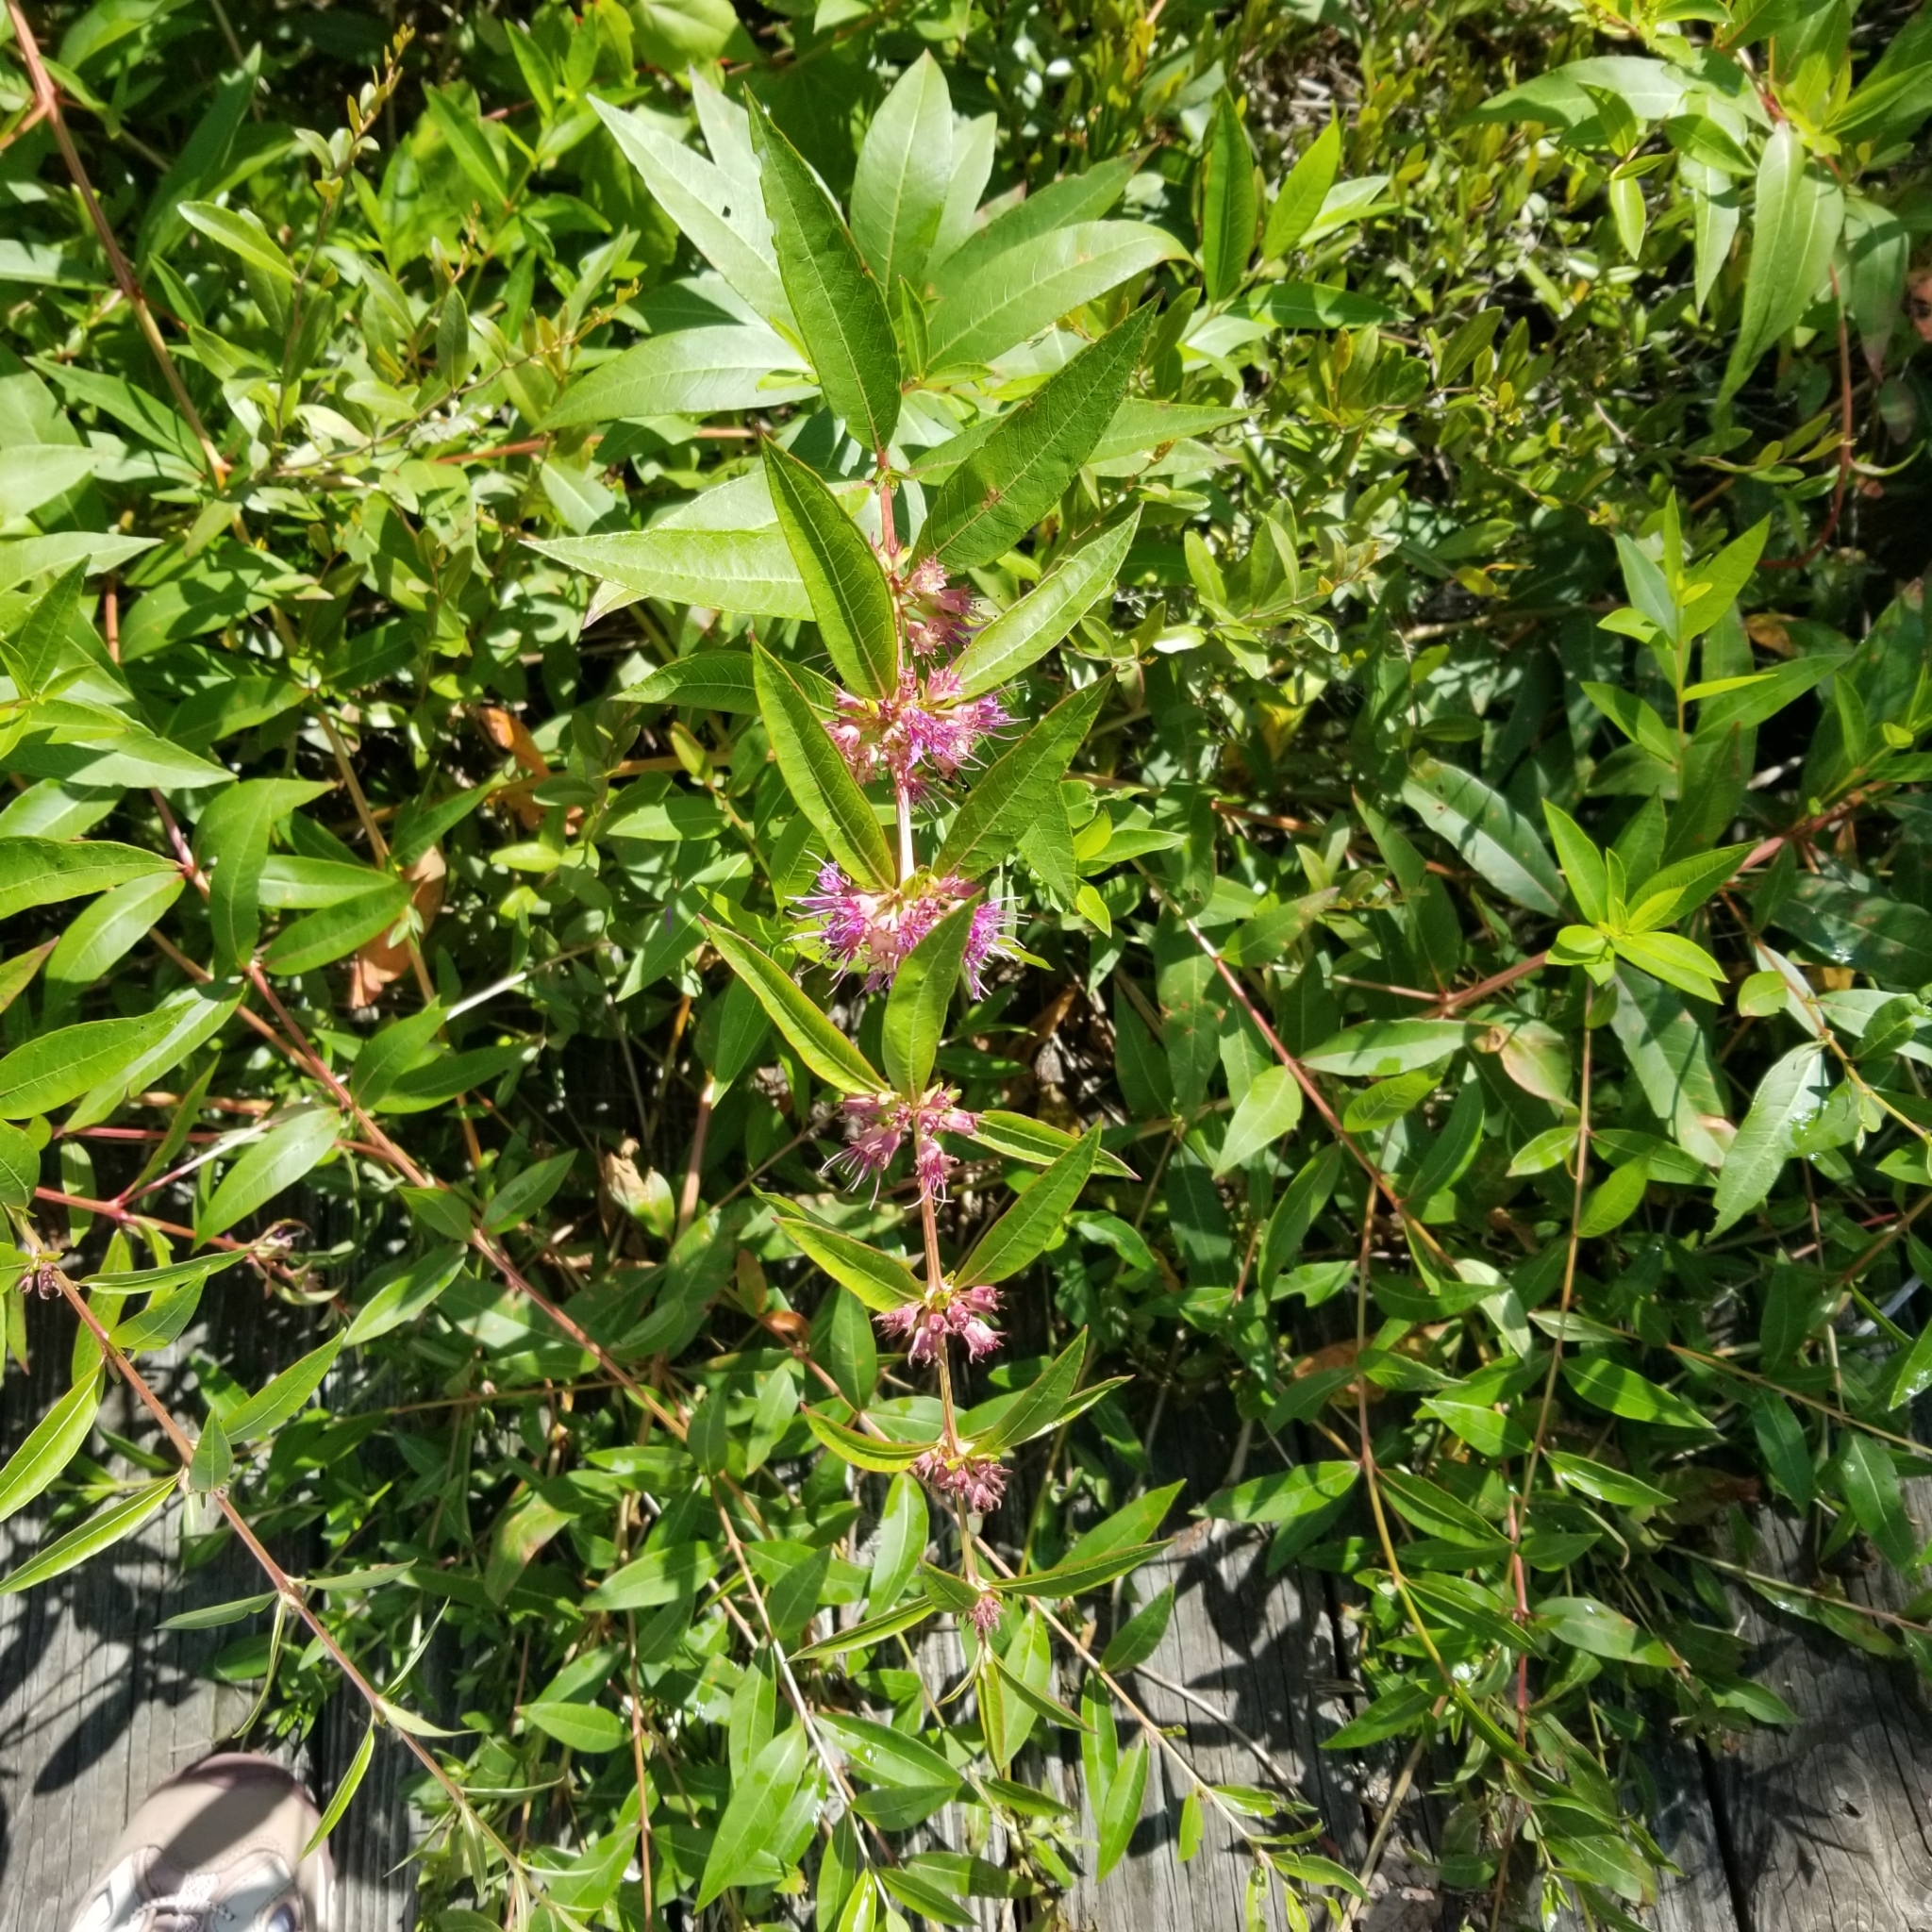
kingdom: Plantae
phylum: Tracheophyta
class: Magnoliopsida
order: Myrtales
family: Lythraceae
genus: Decodon
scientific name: Decodon verticillatus
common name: Hairy swamp loosestrife
